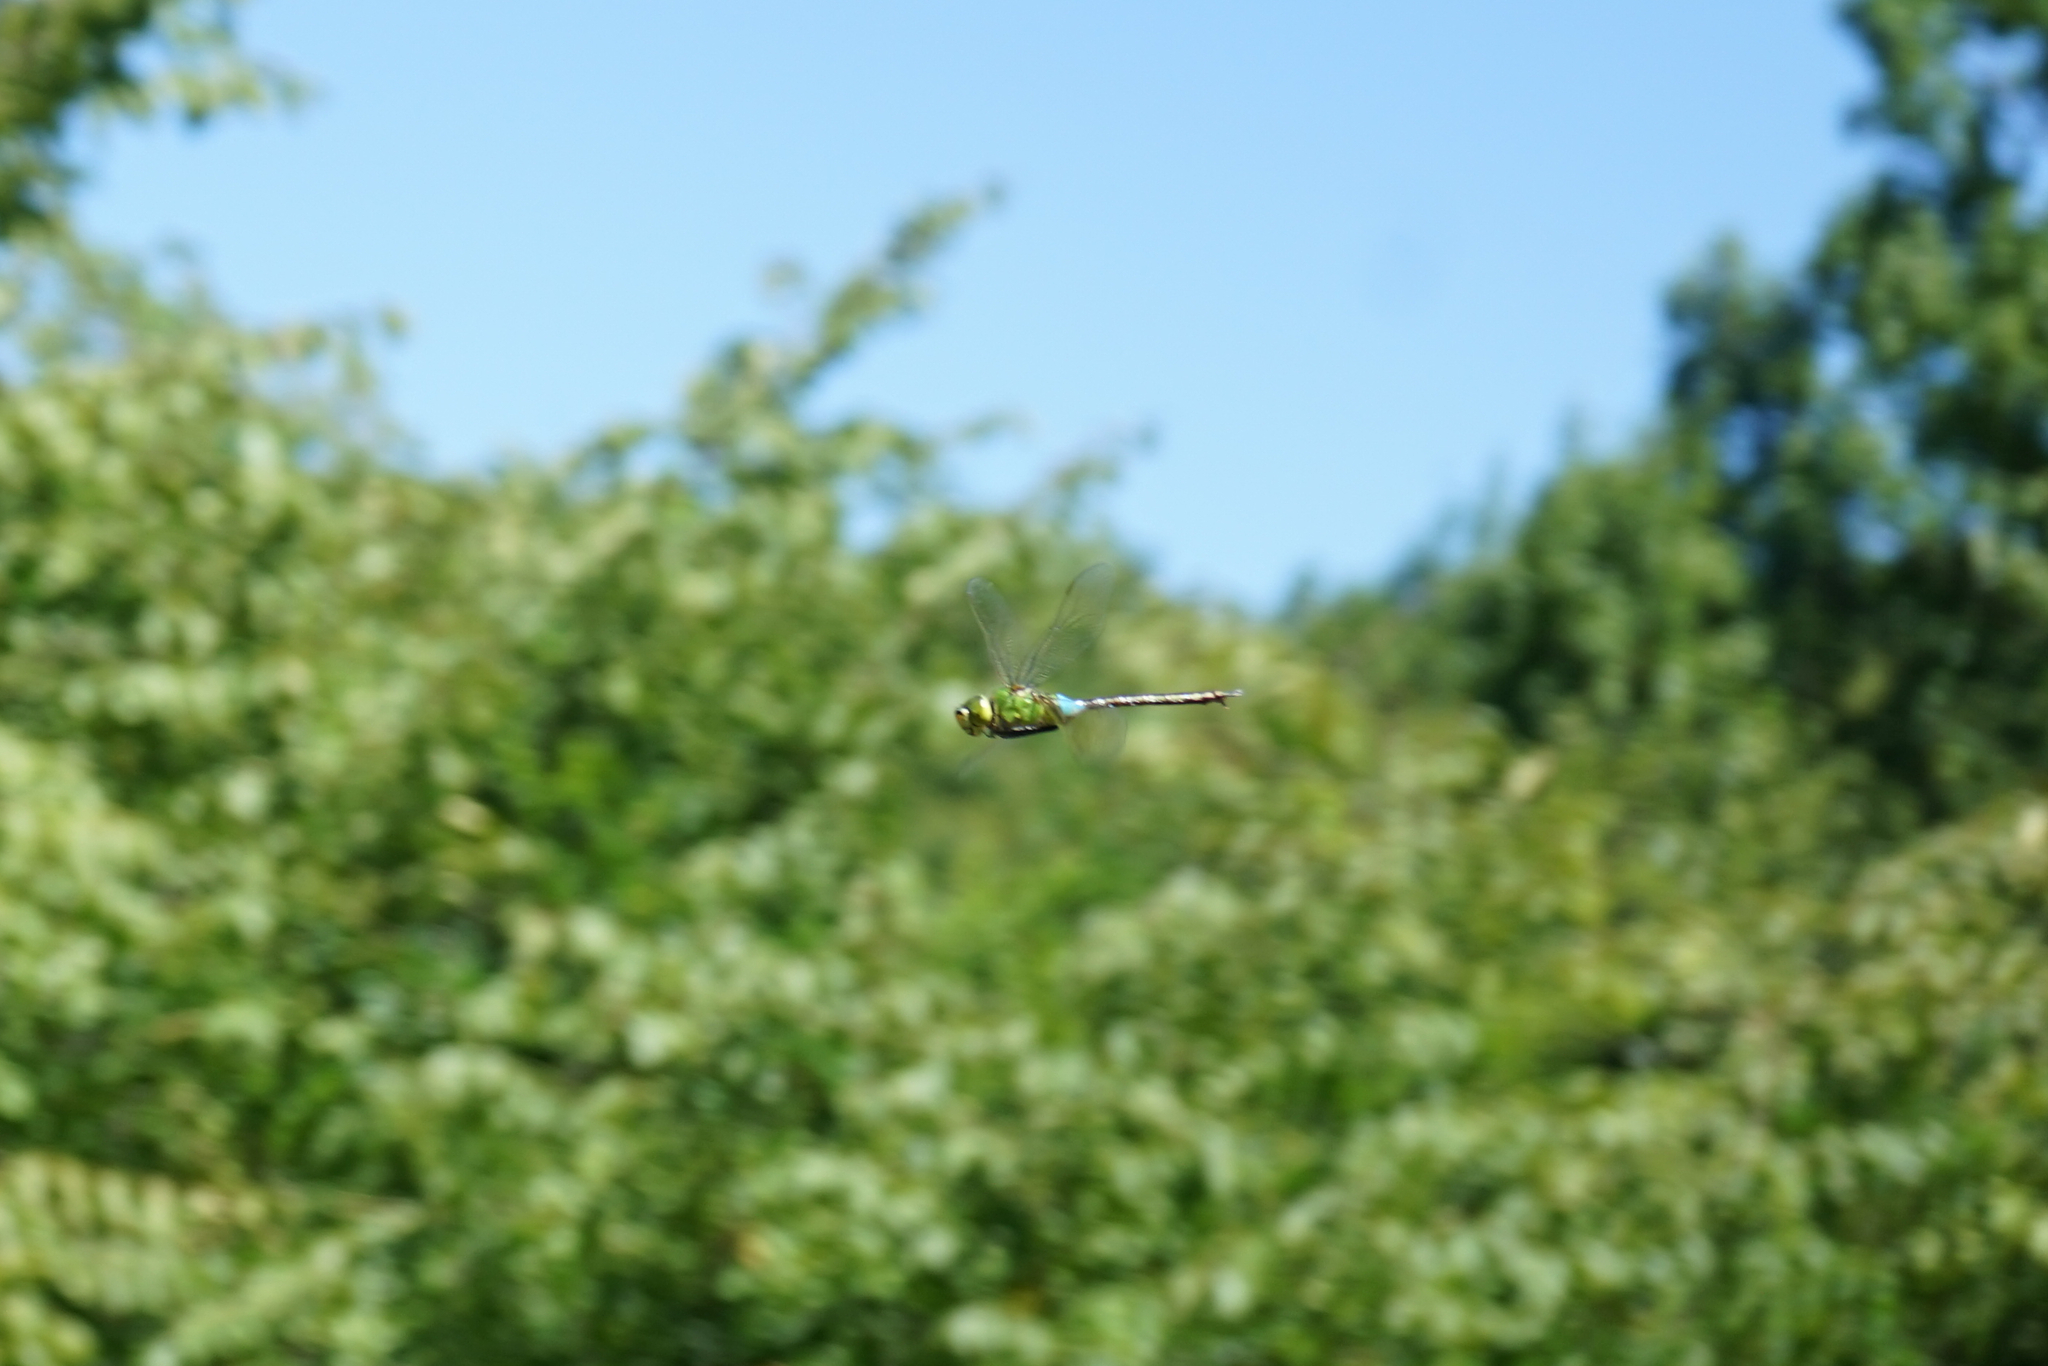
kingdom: Animalia
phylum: Arthropoda
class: Insecta
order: Odonata
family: Aeshnidae
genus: Anax
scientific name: Anax julius
